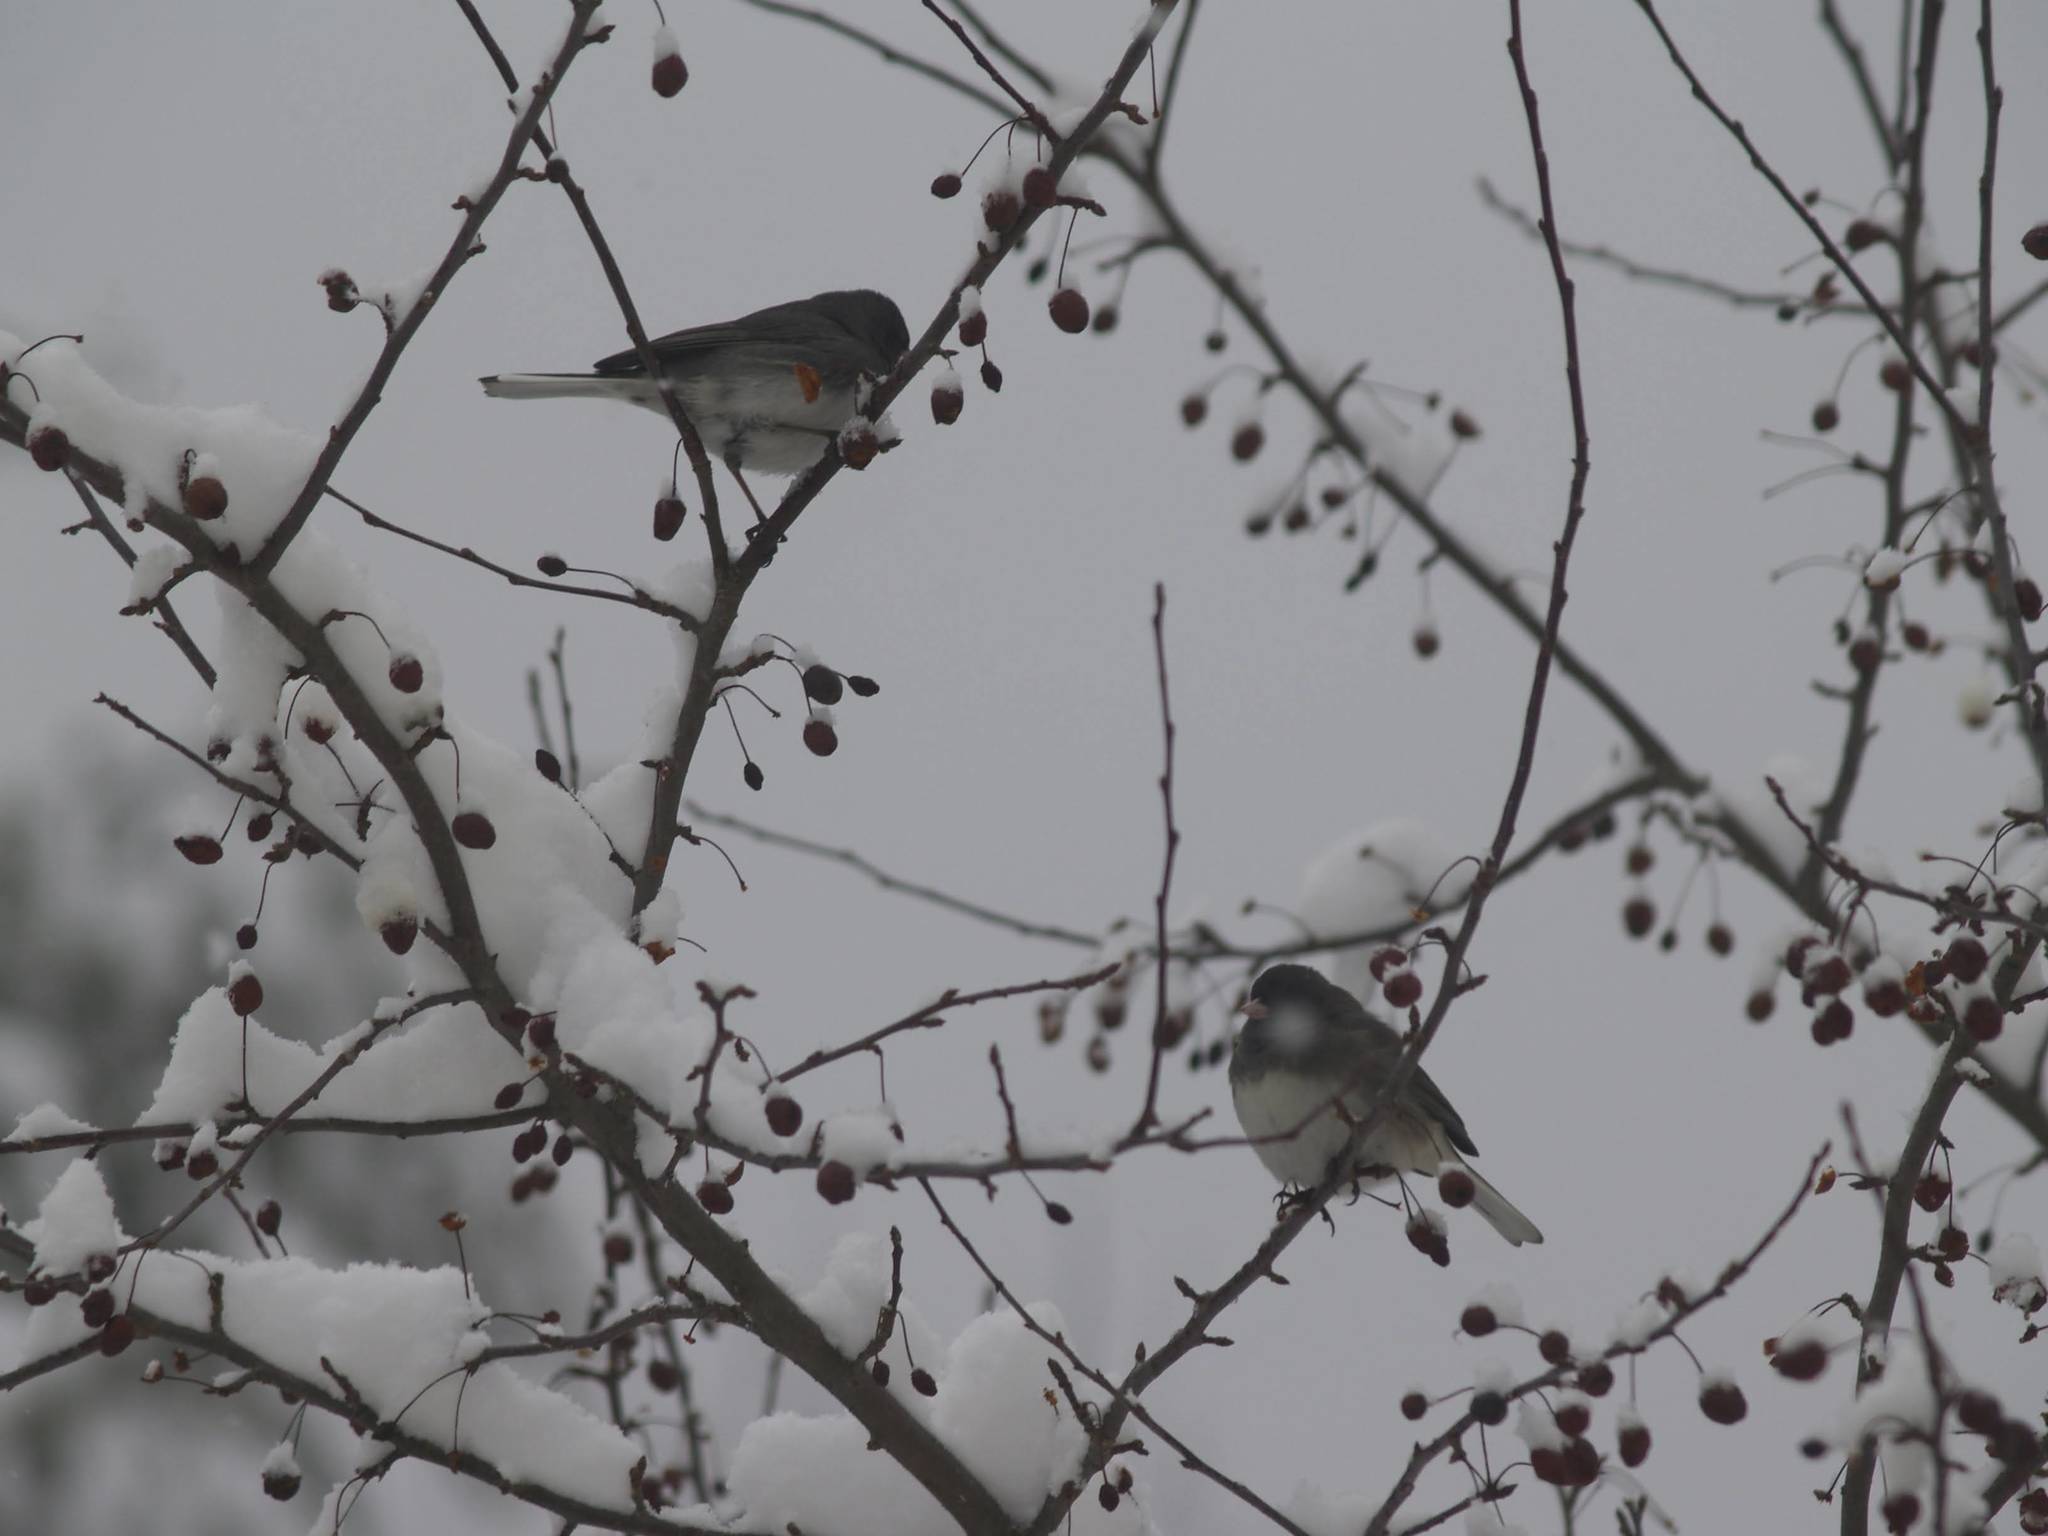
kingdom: Animalia
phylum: Chordata
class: Aves
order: Passeriformes
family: Passerellidae
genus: Junco
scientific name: Junco hyemalis
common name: Dark-eyed junco
